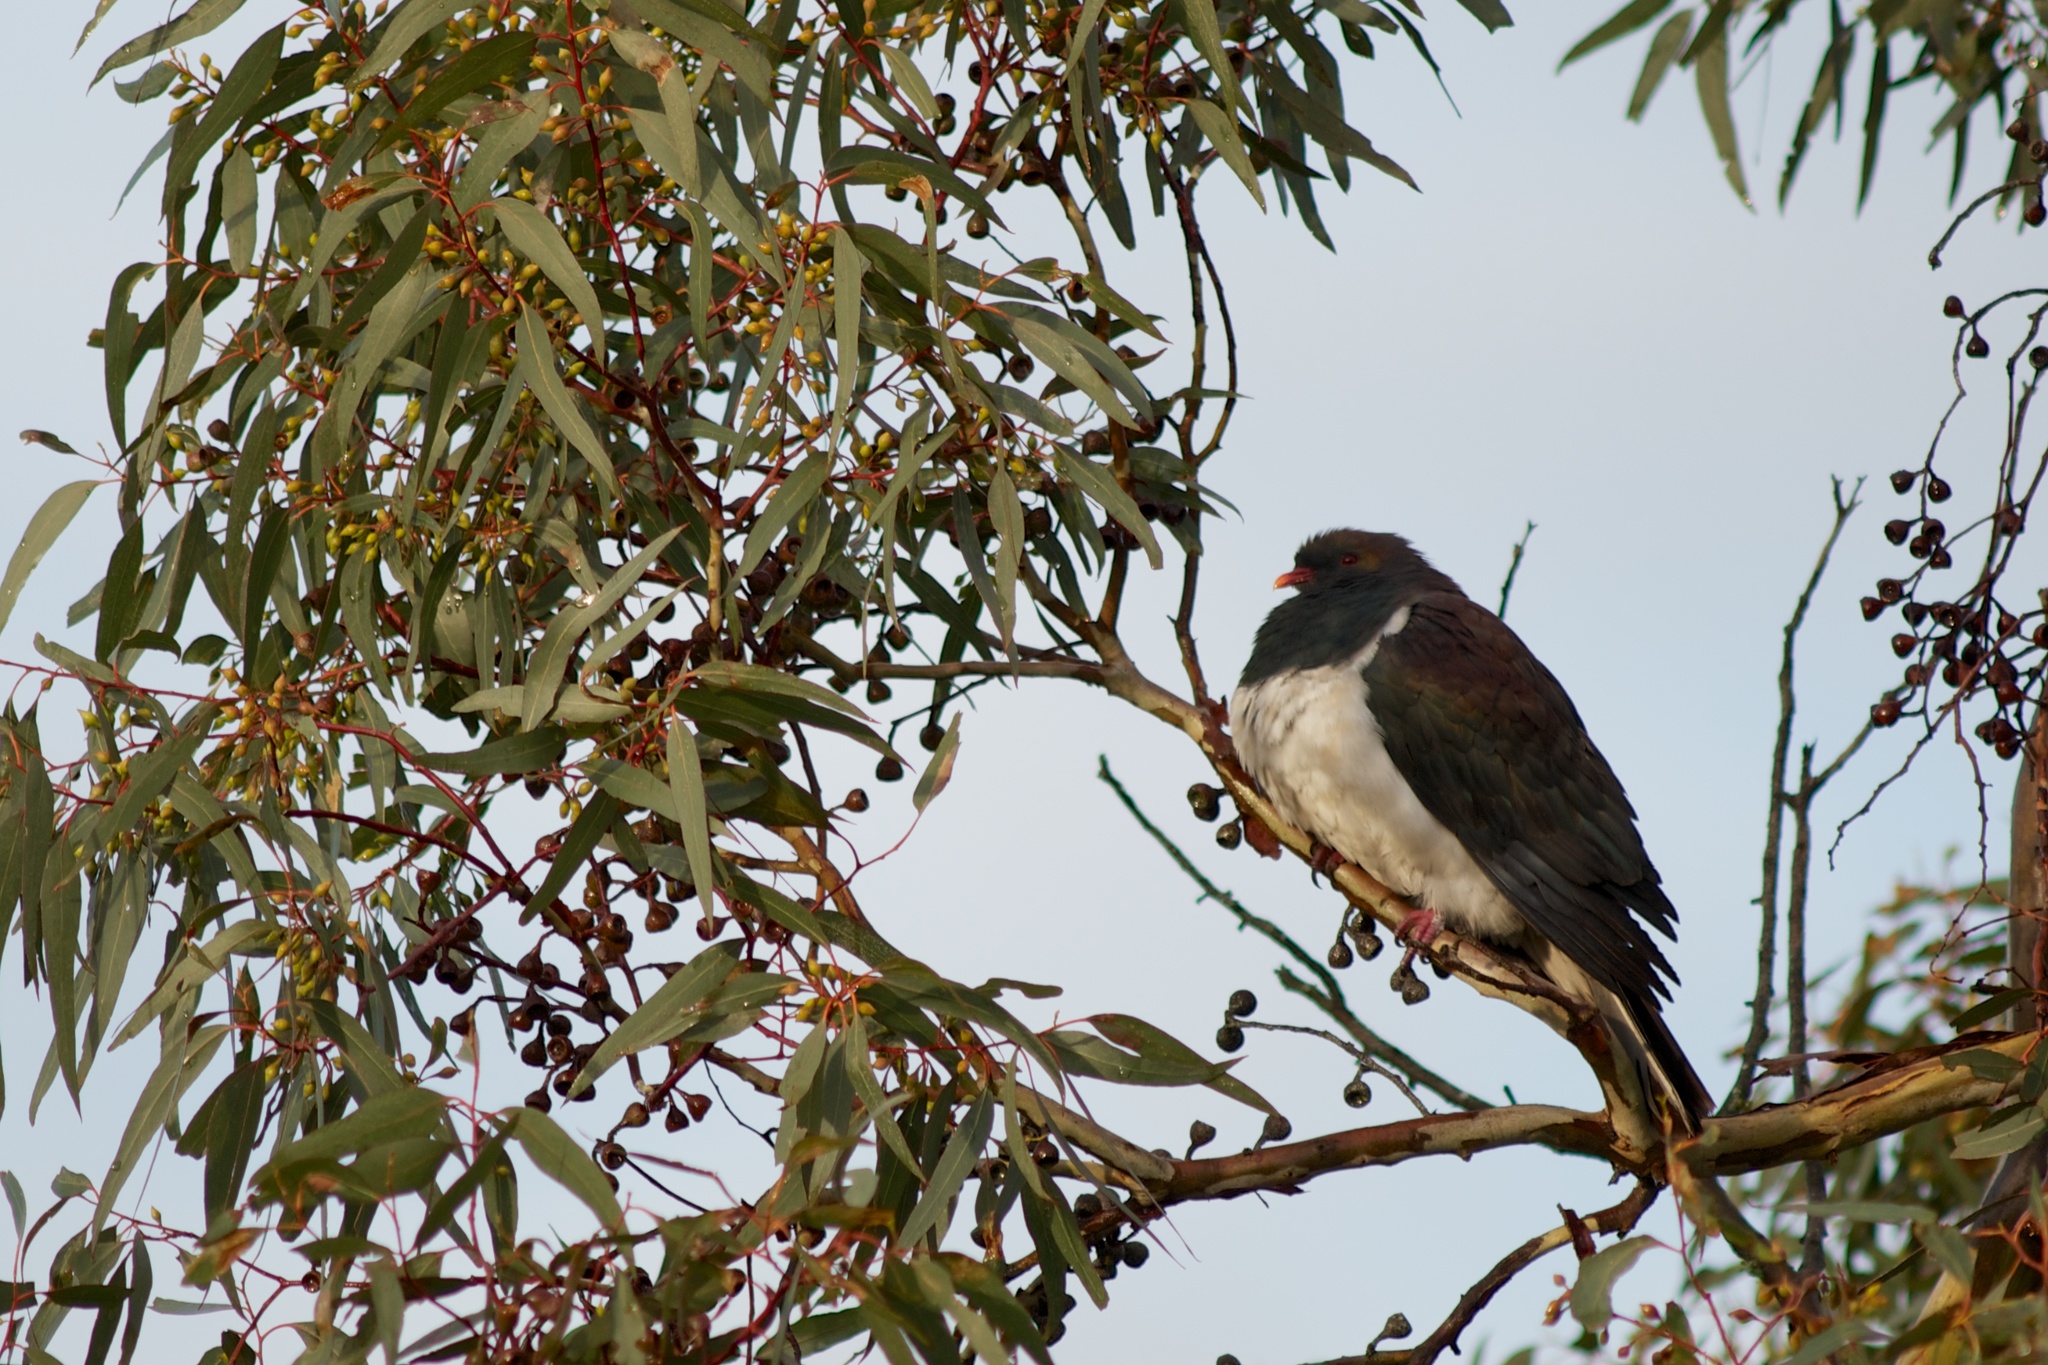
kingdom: Animalia
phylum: Chordata
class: Aves
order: Columbiformes
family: Columbidae
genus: Hemiphaga
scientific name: Hemiphaga novaeseelandiae
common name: New zealand pigeon
